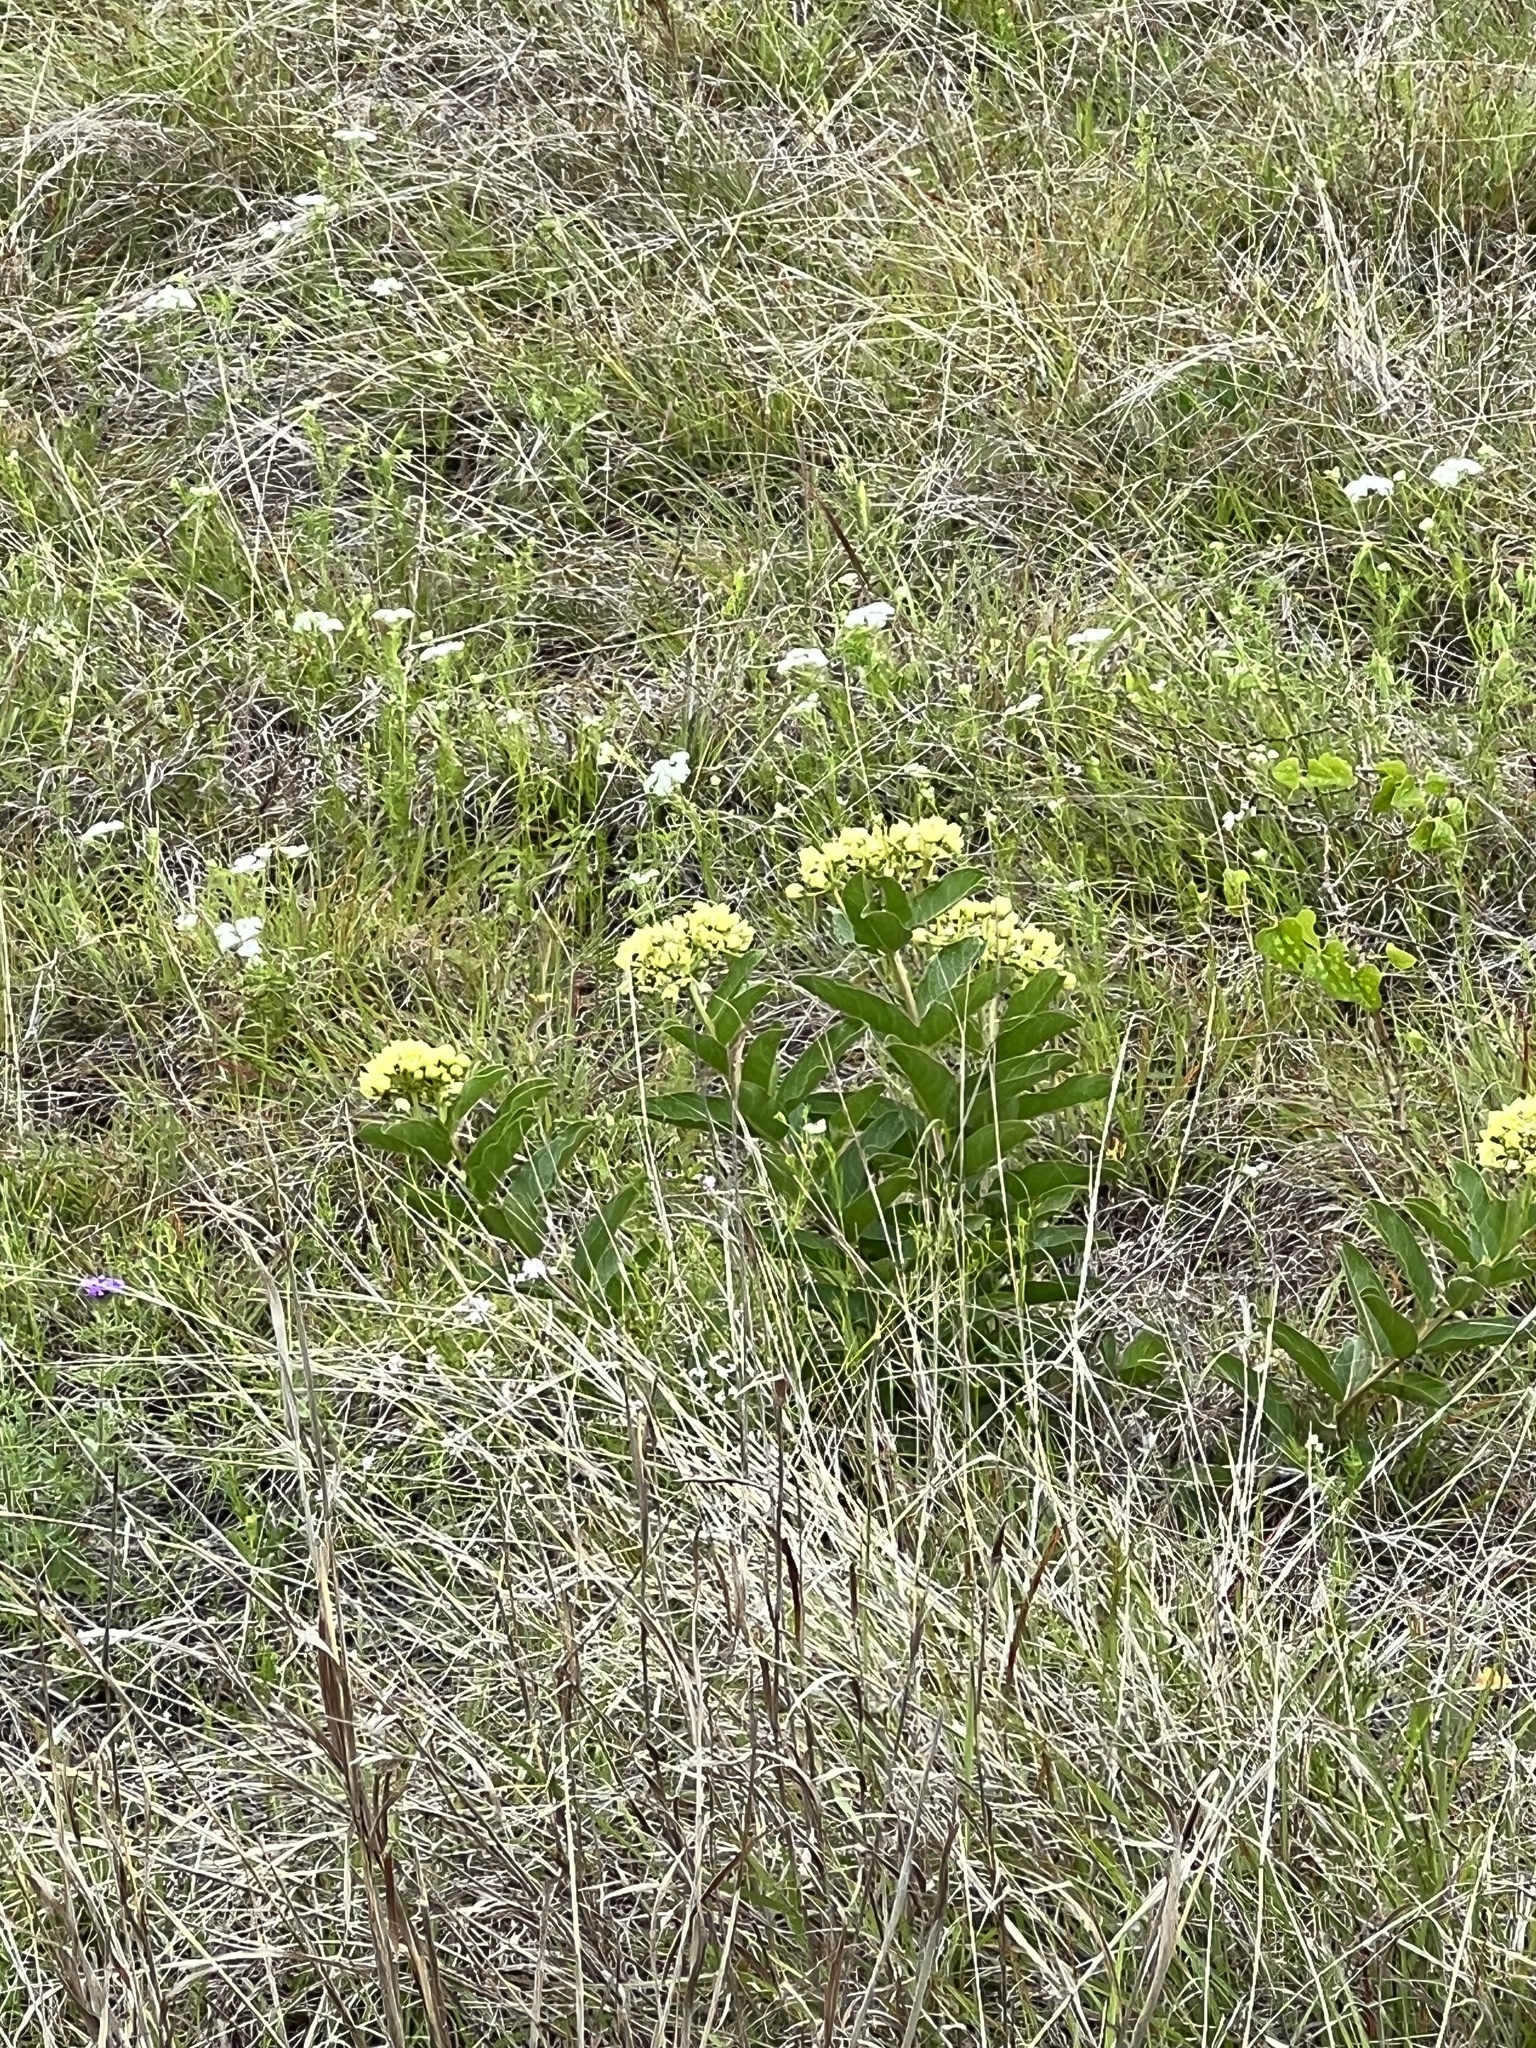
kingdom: Plantae
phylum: Tracheophyta
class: Magnoliopsida
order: Gentianales
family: Apocynaceae
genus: Asclepias
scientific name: Asclepias viridis
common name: Antelope-horns
